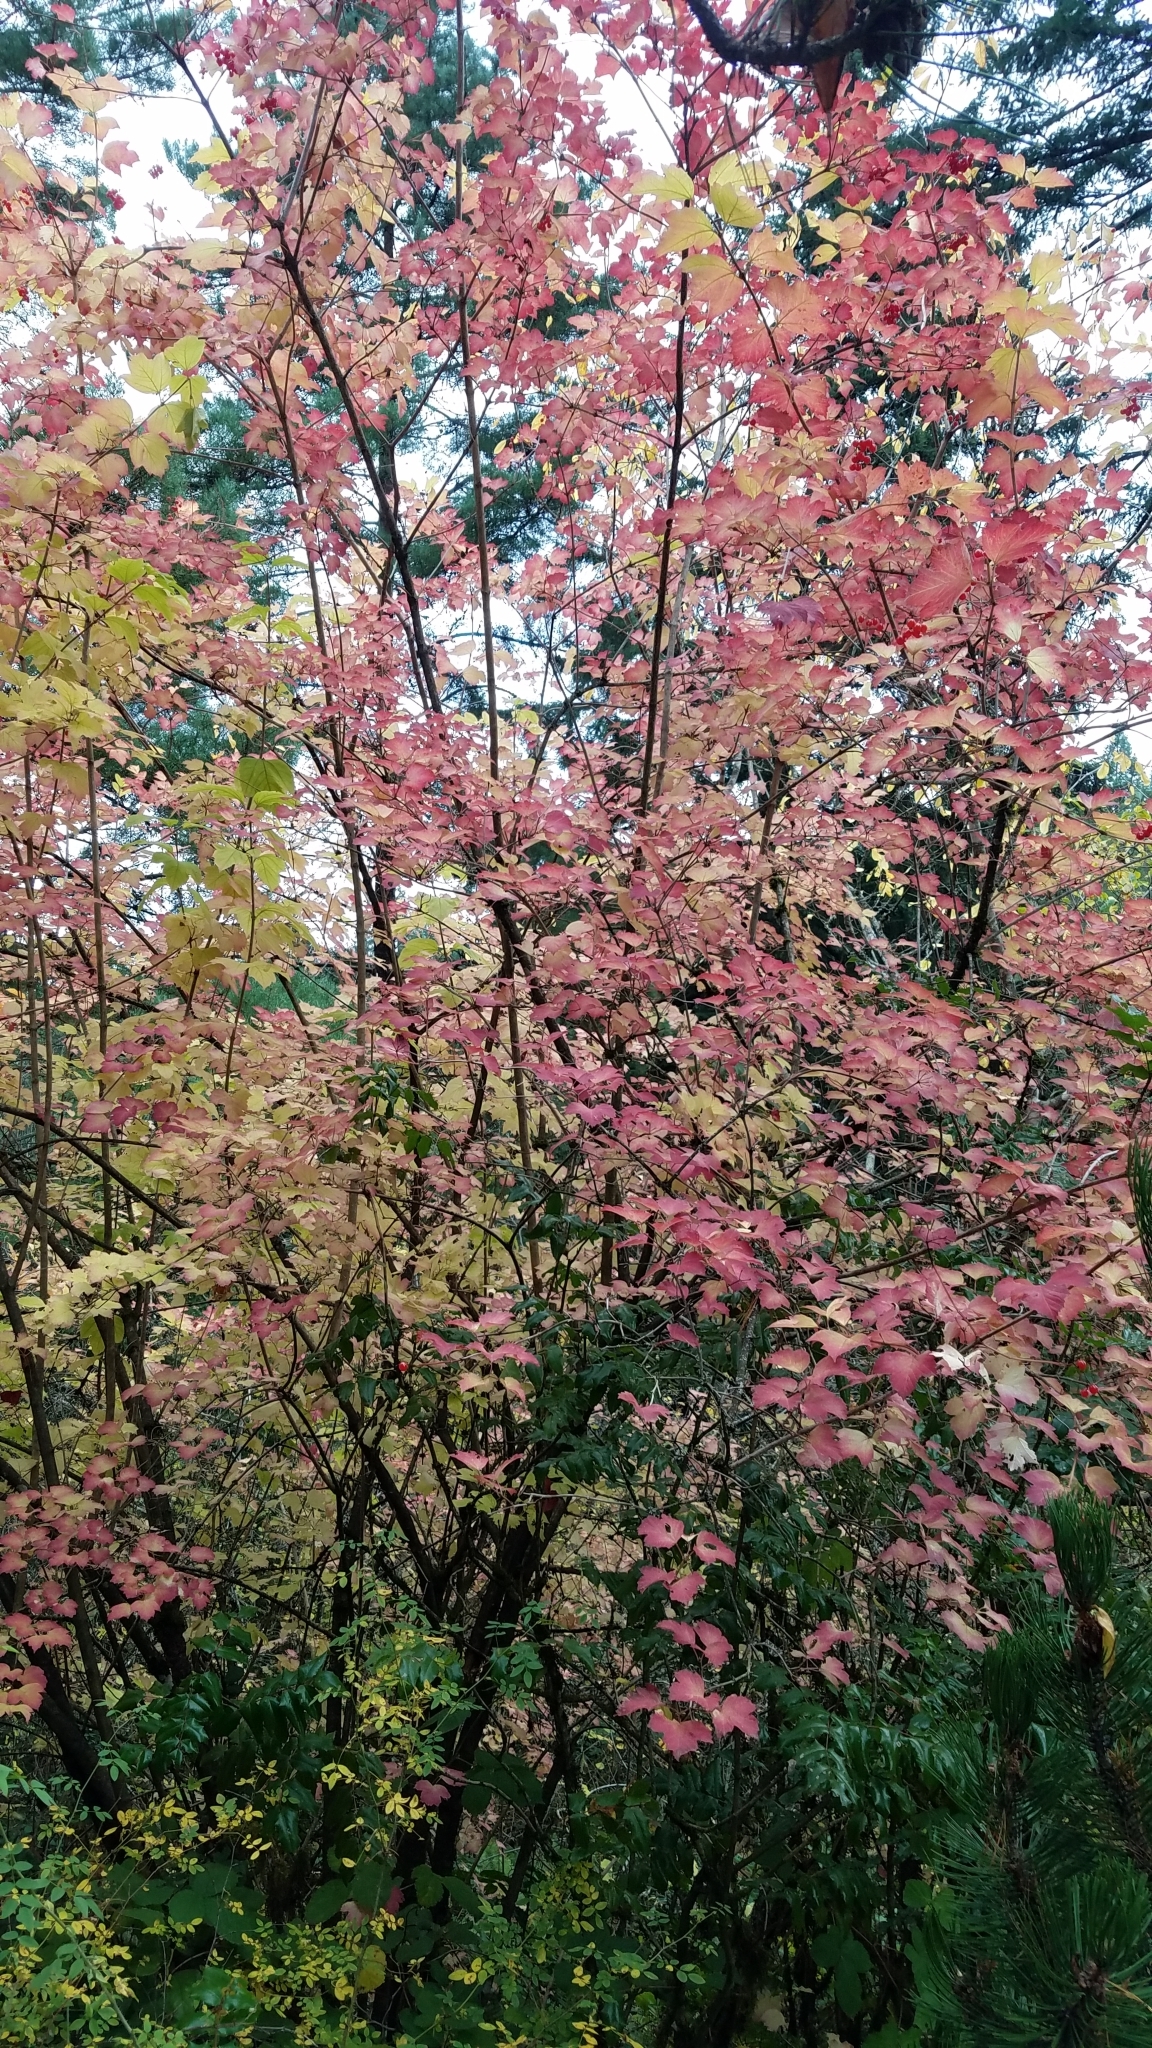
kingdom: Plantae
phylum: Tracheophyta
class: Magnoliopsida
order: Dipsacales
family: Viburnaceae
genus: Viburnum
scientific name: Viburnum opulus
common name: Guelder-rose
